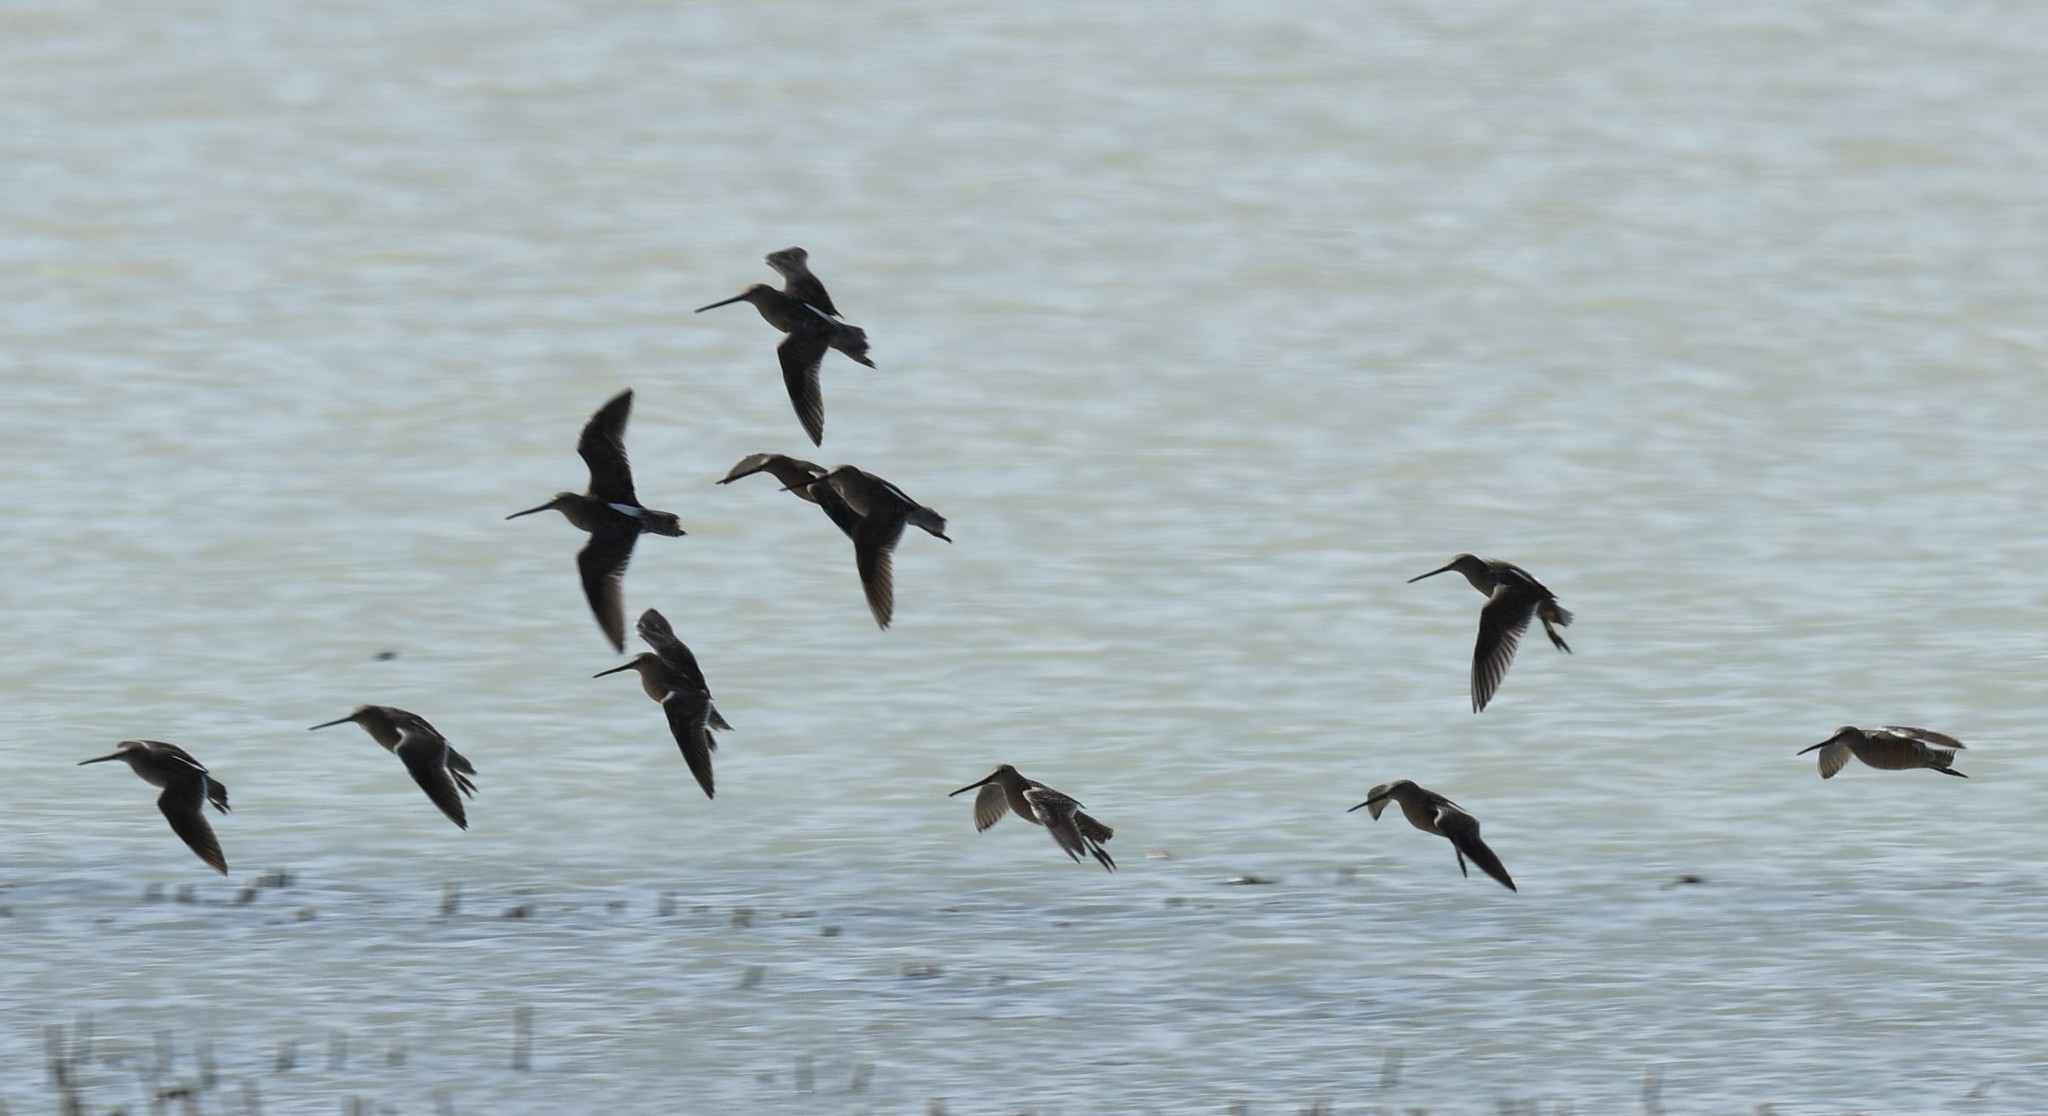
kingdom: Animalia
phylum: Chordata
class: Aves
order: Charadriiformes
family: Scolopacidae
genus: Limnodromus
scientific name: Limnodromus scolopaceus
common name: Long-billed dowitcher
